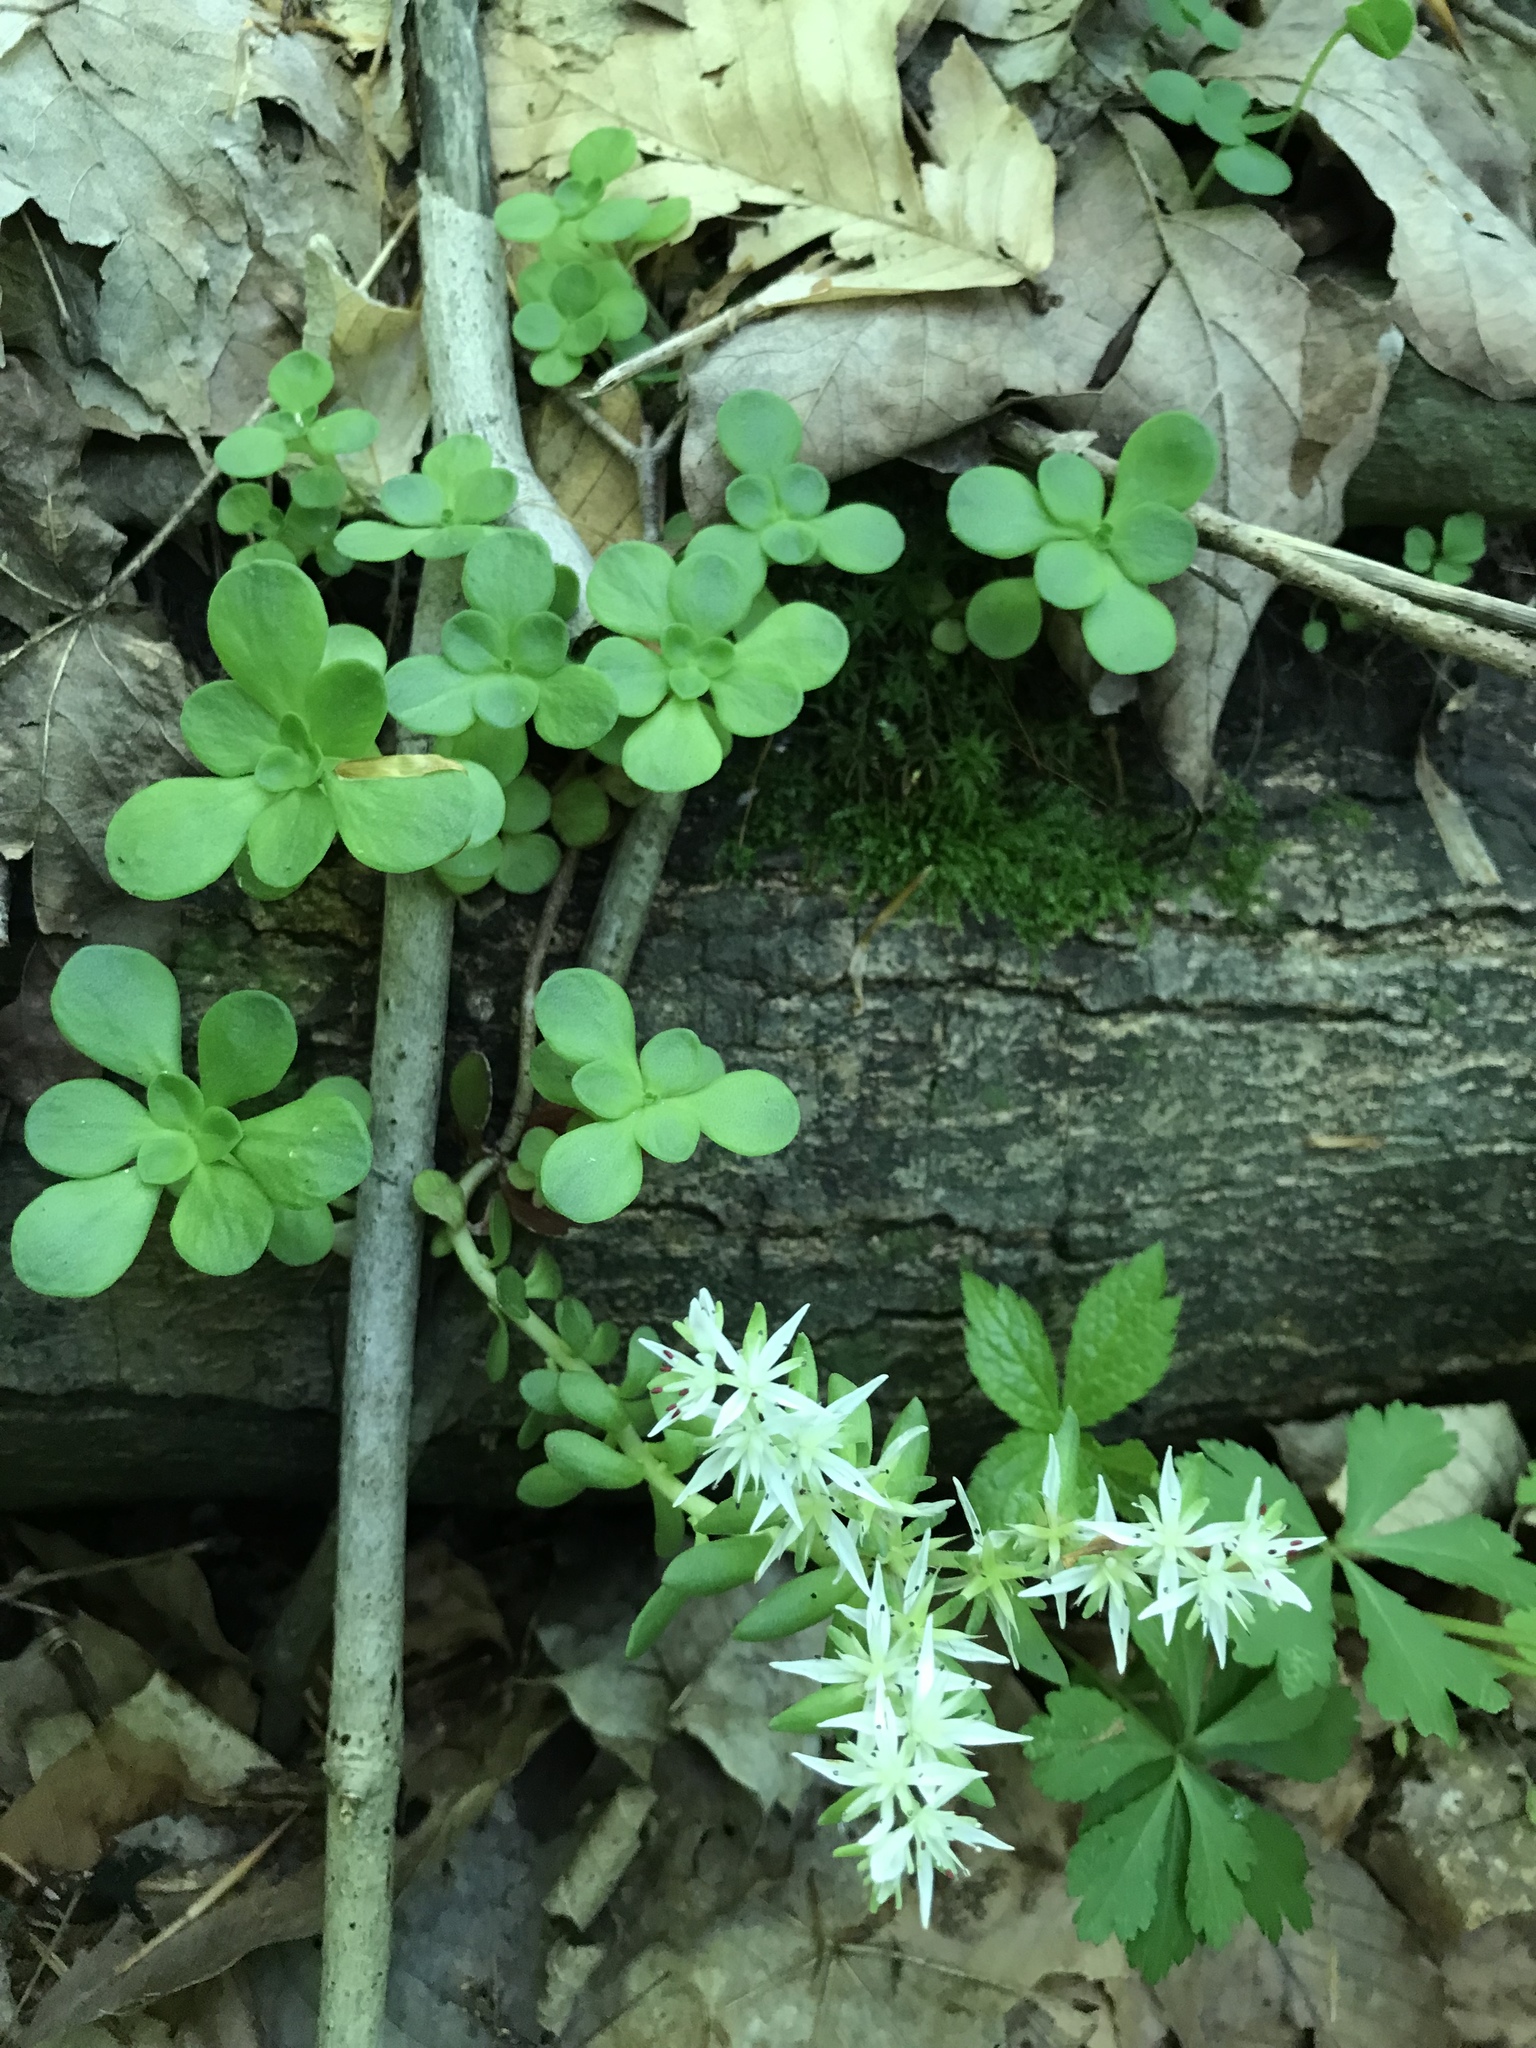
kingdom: Plantae
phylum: Tracheophyta
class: Magnoliopsida
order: Saxifragales
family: Crassulaceae
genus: Sedum
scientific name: Sedum ternatum
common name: Wild stonecrop
